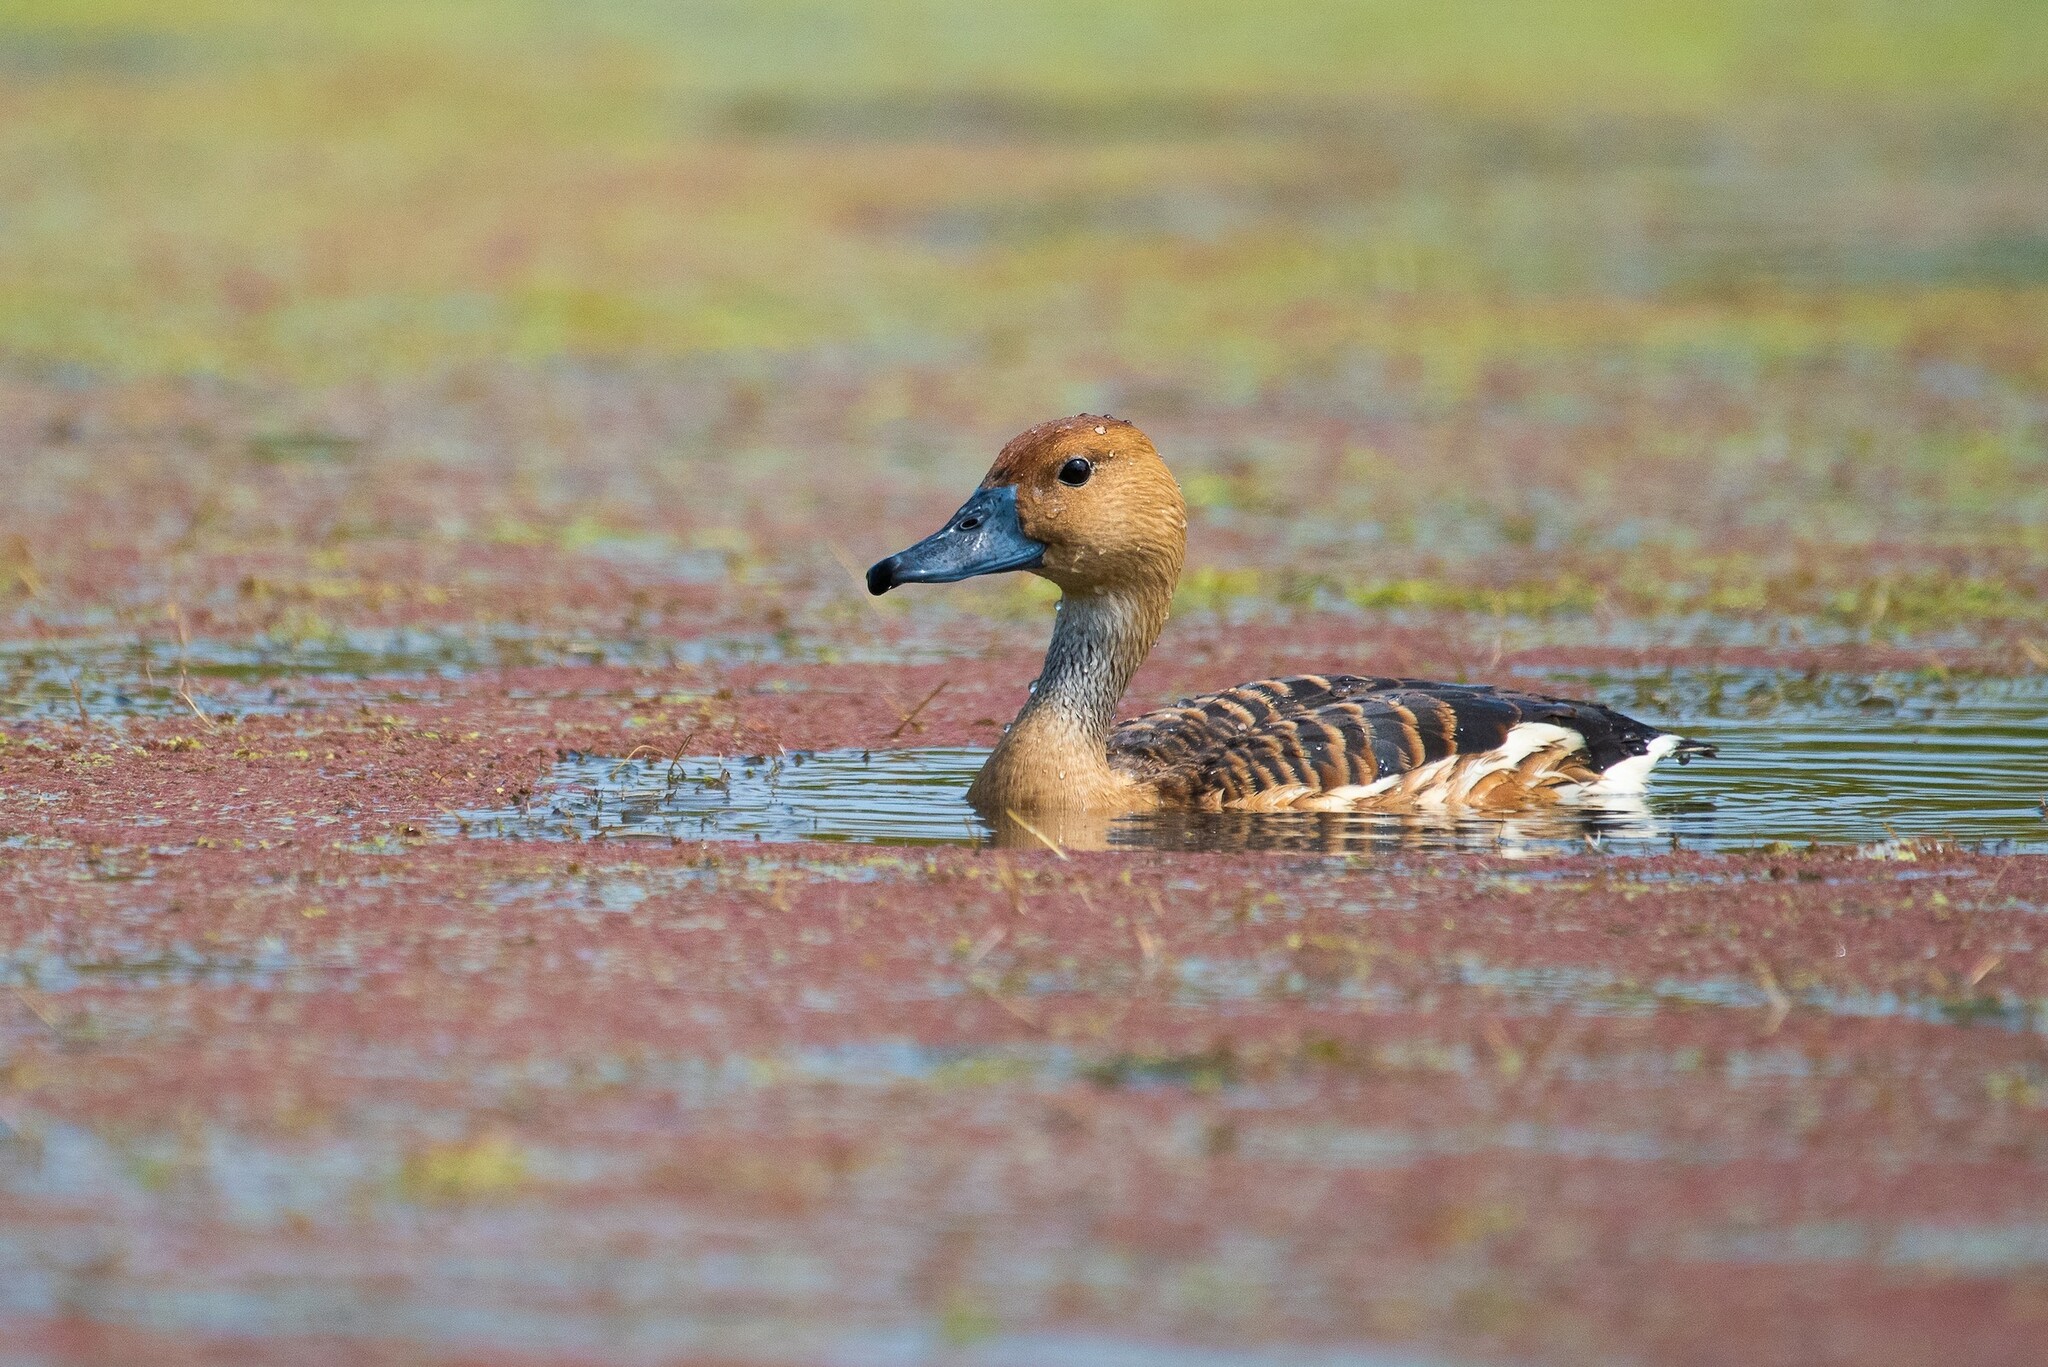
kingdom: Animalia
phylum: Chordata
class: Aves
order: Anseriformes
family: Anatidae
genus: Dendrocygna
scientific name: Dendrocygna bicolor
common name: Fulvous whistling duck
